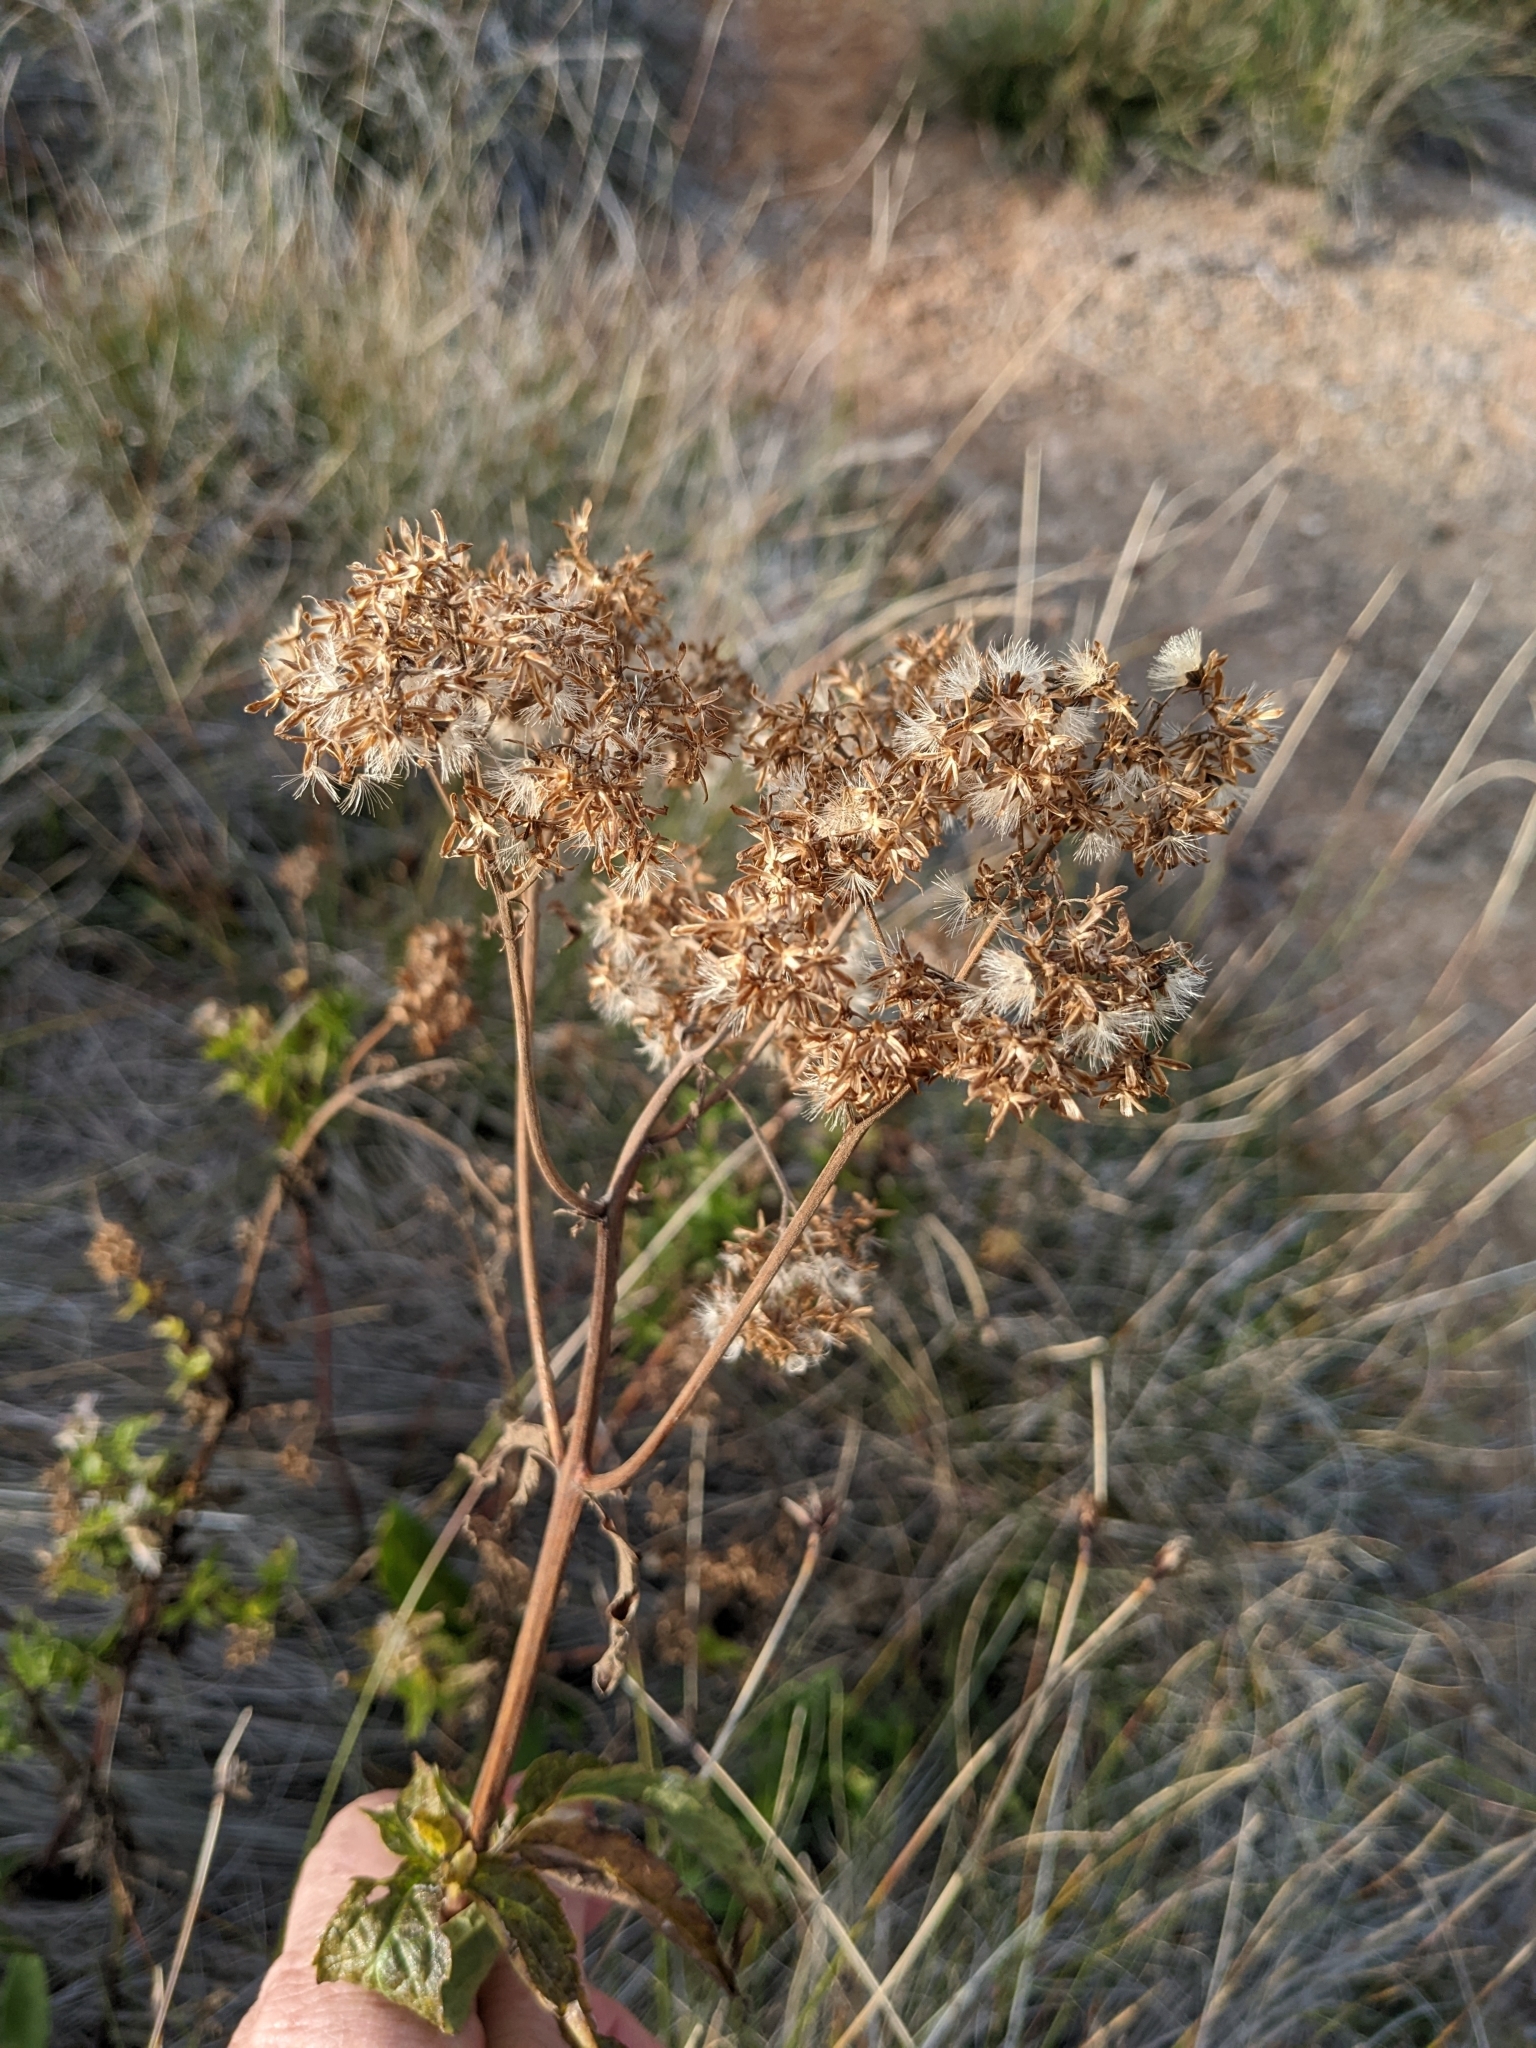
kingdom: Plantae
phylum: Tracheophyta
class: Magnoliopsida
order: Asterales
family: Asteraceae
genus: Eupatorium
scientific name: Eupatorium cannabinum
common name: Hemp-agrimony
